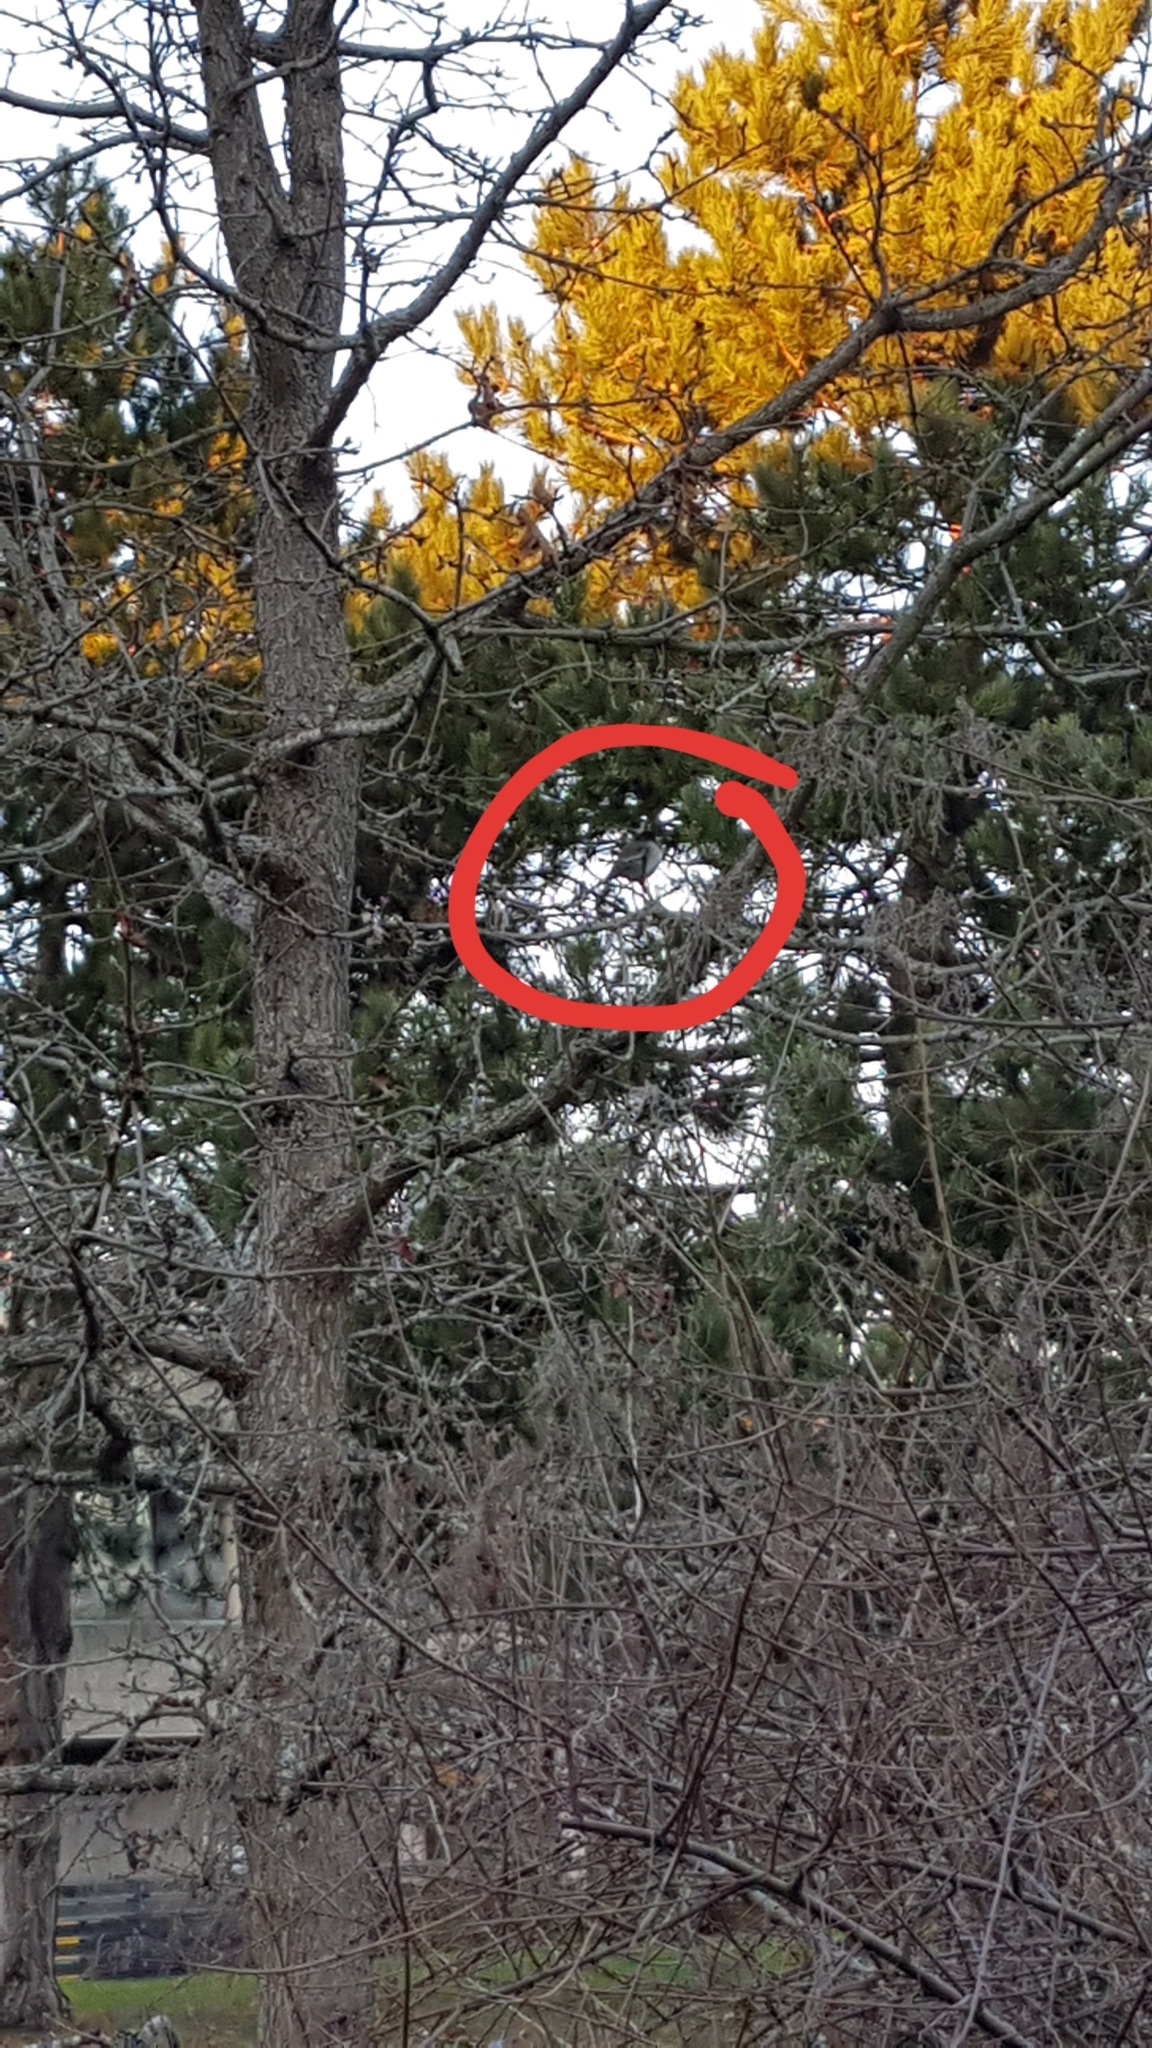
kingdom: Animalia
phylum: Chordata
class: Aves
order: Passeriformes
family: Passerellidae
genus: Junco
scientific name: Junco hyemalis
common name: Dark-eyed junco
